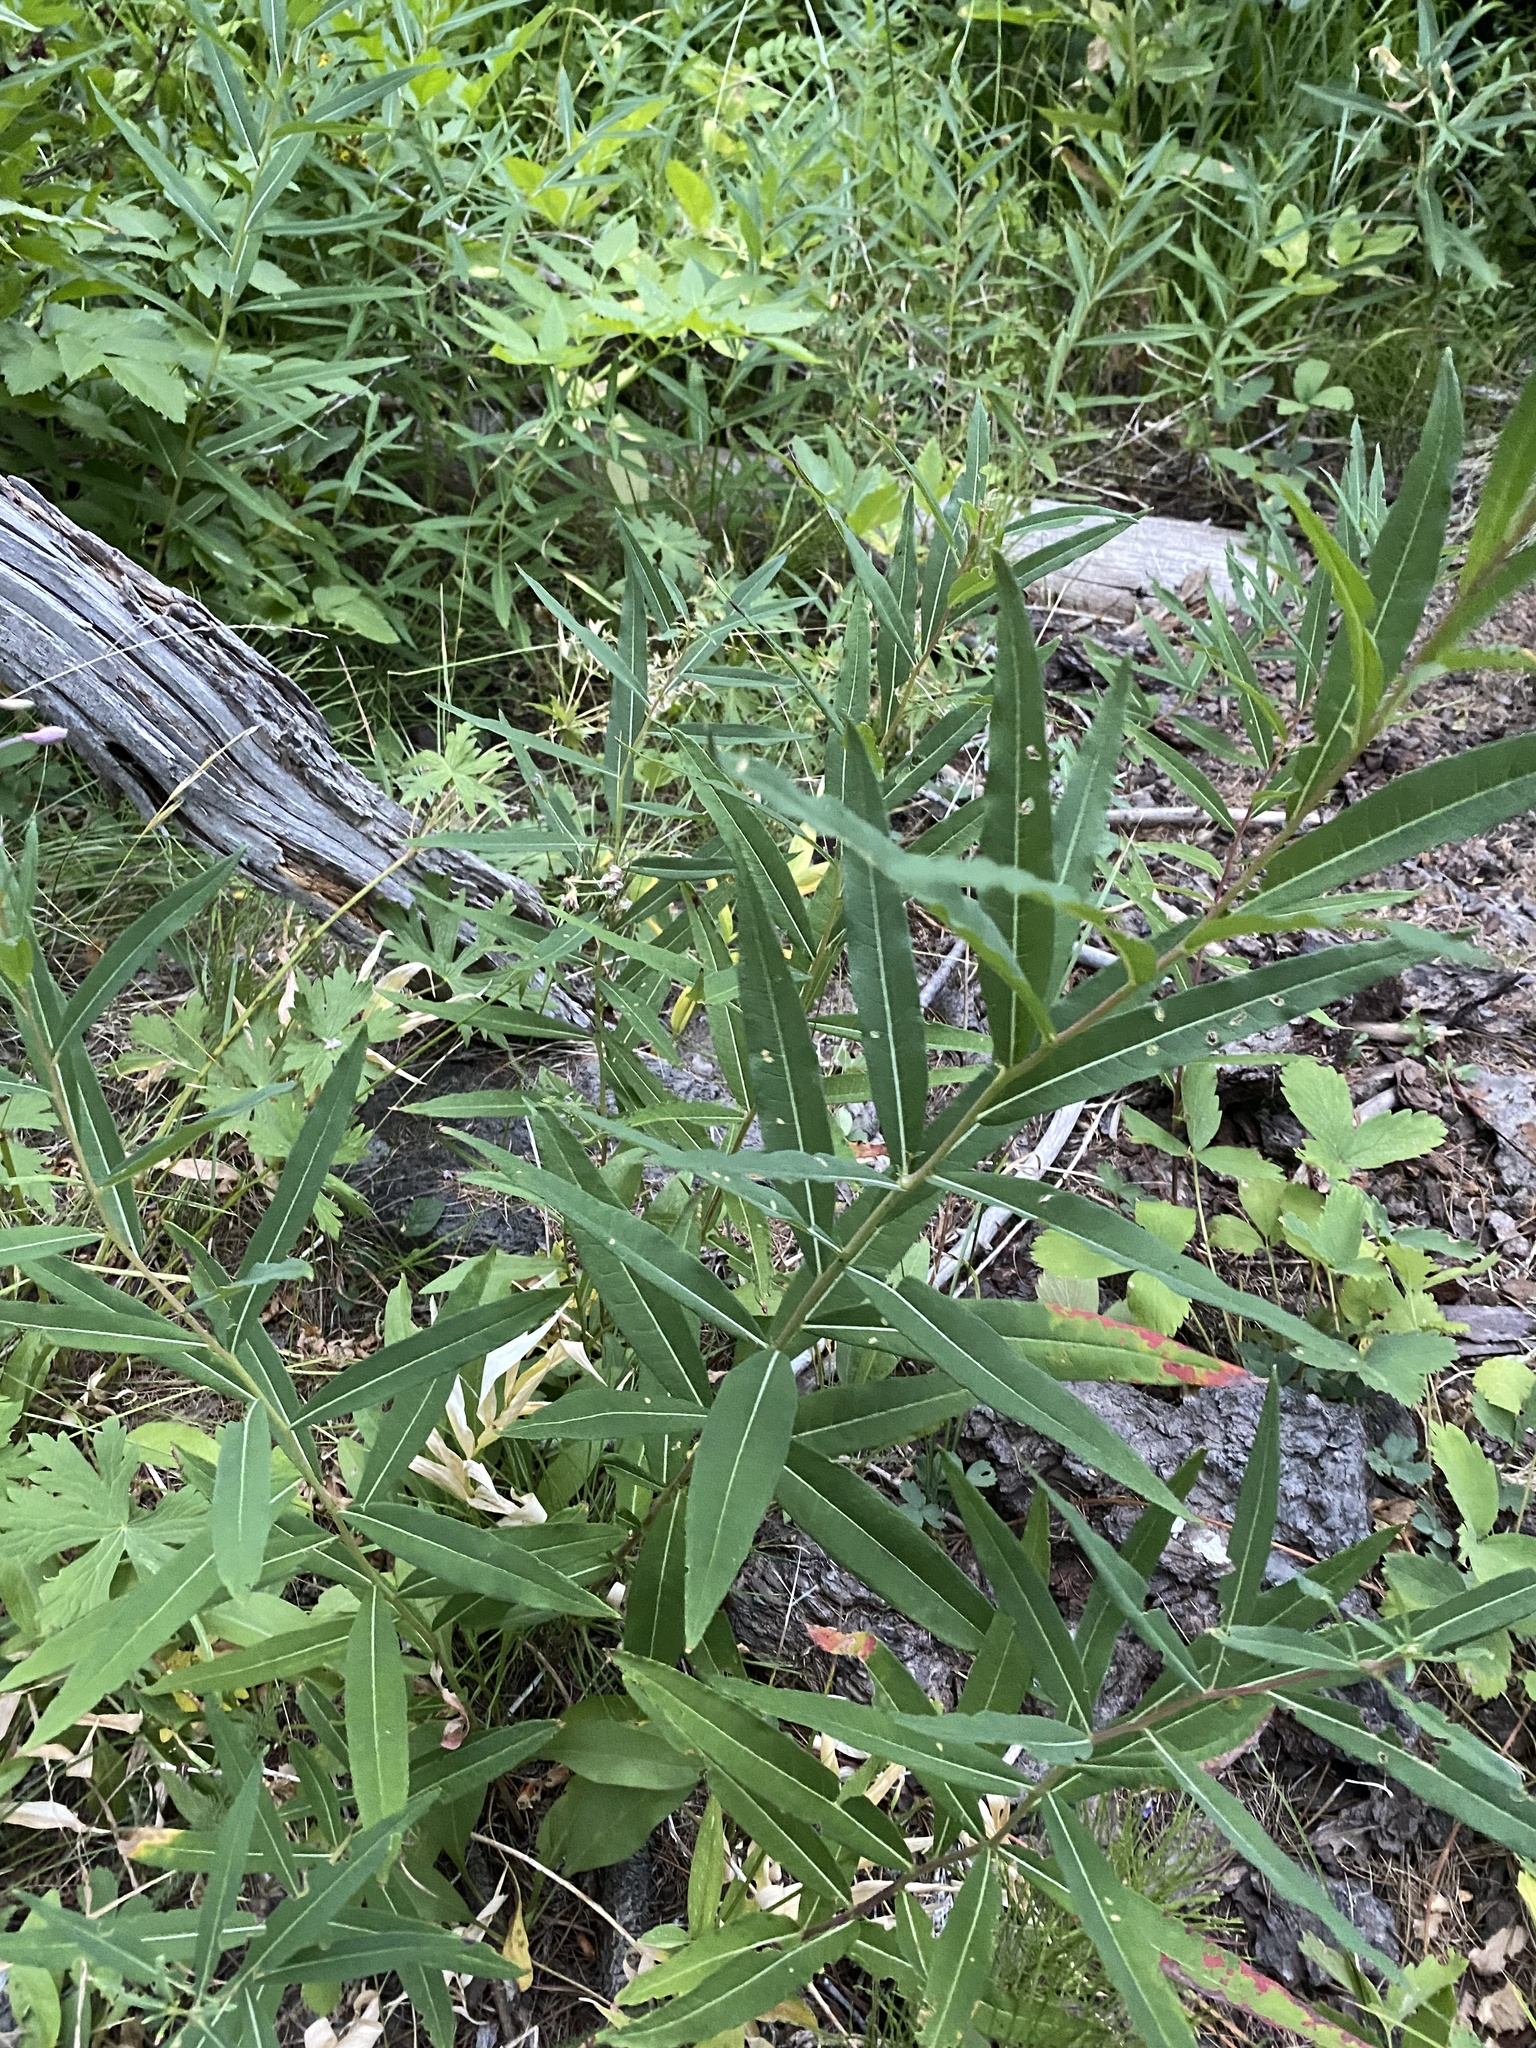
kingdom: Plantae
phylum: Tracheophyta
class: Magnoliopsida
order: Myrtales
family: Onagraceae
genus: Chamaenerion
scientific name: Chamaenerion angustifolium
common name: Fireweed
